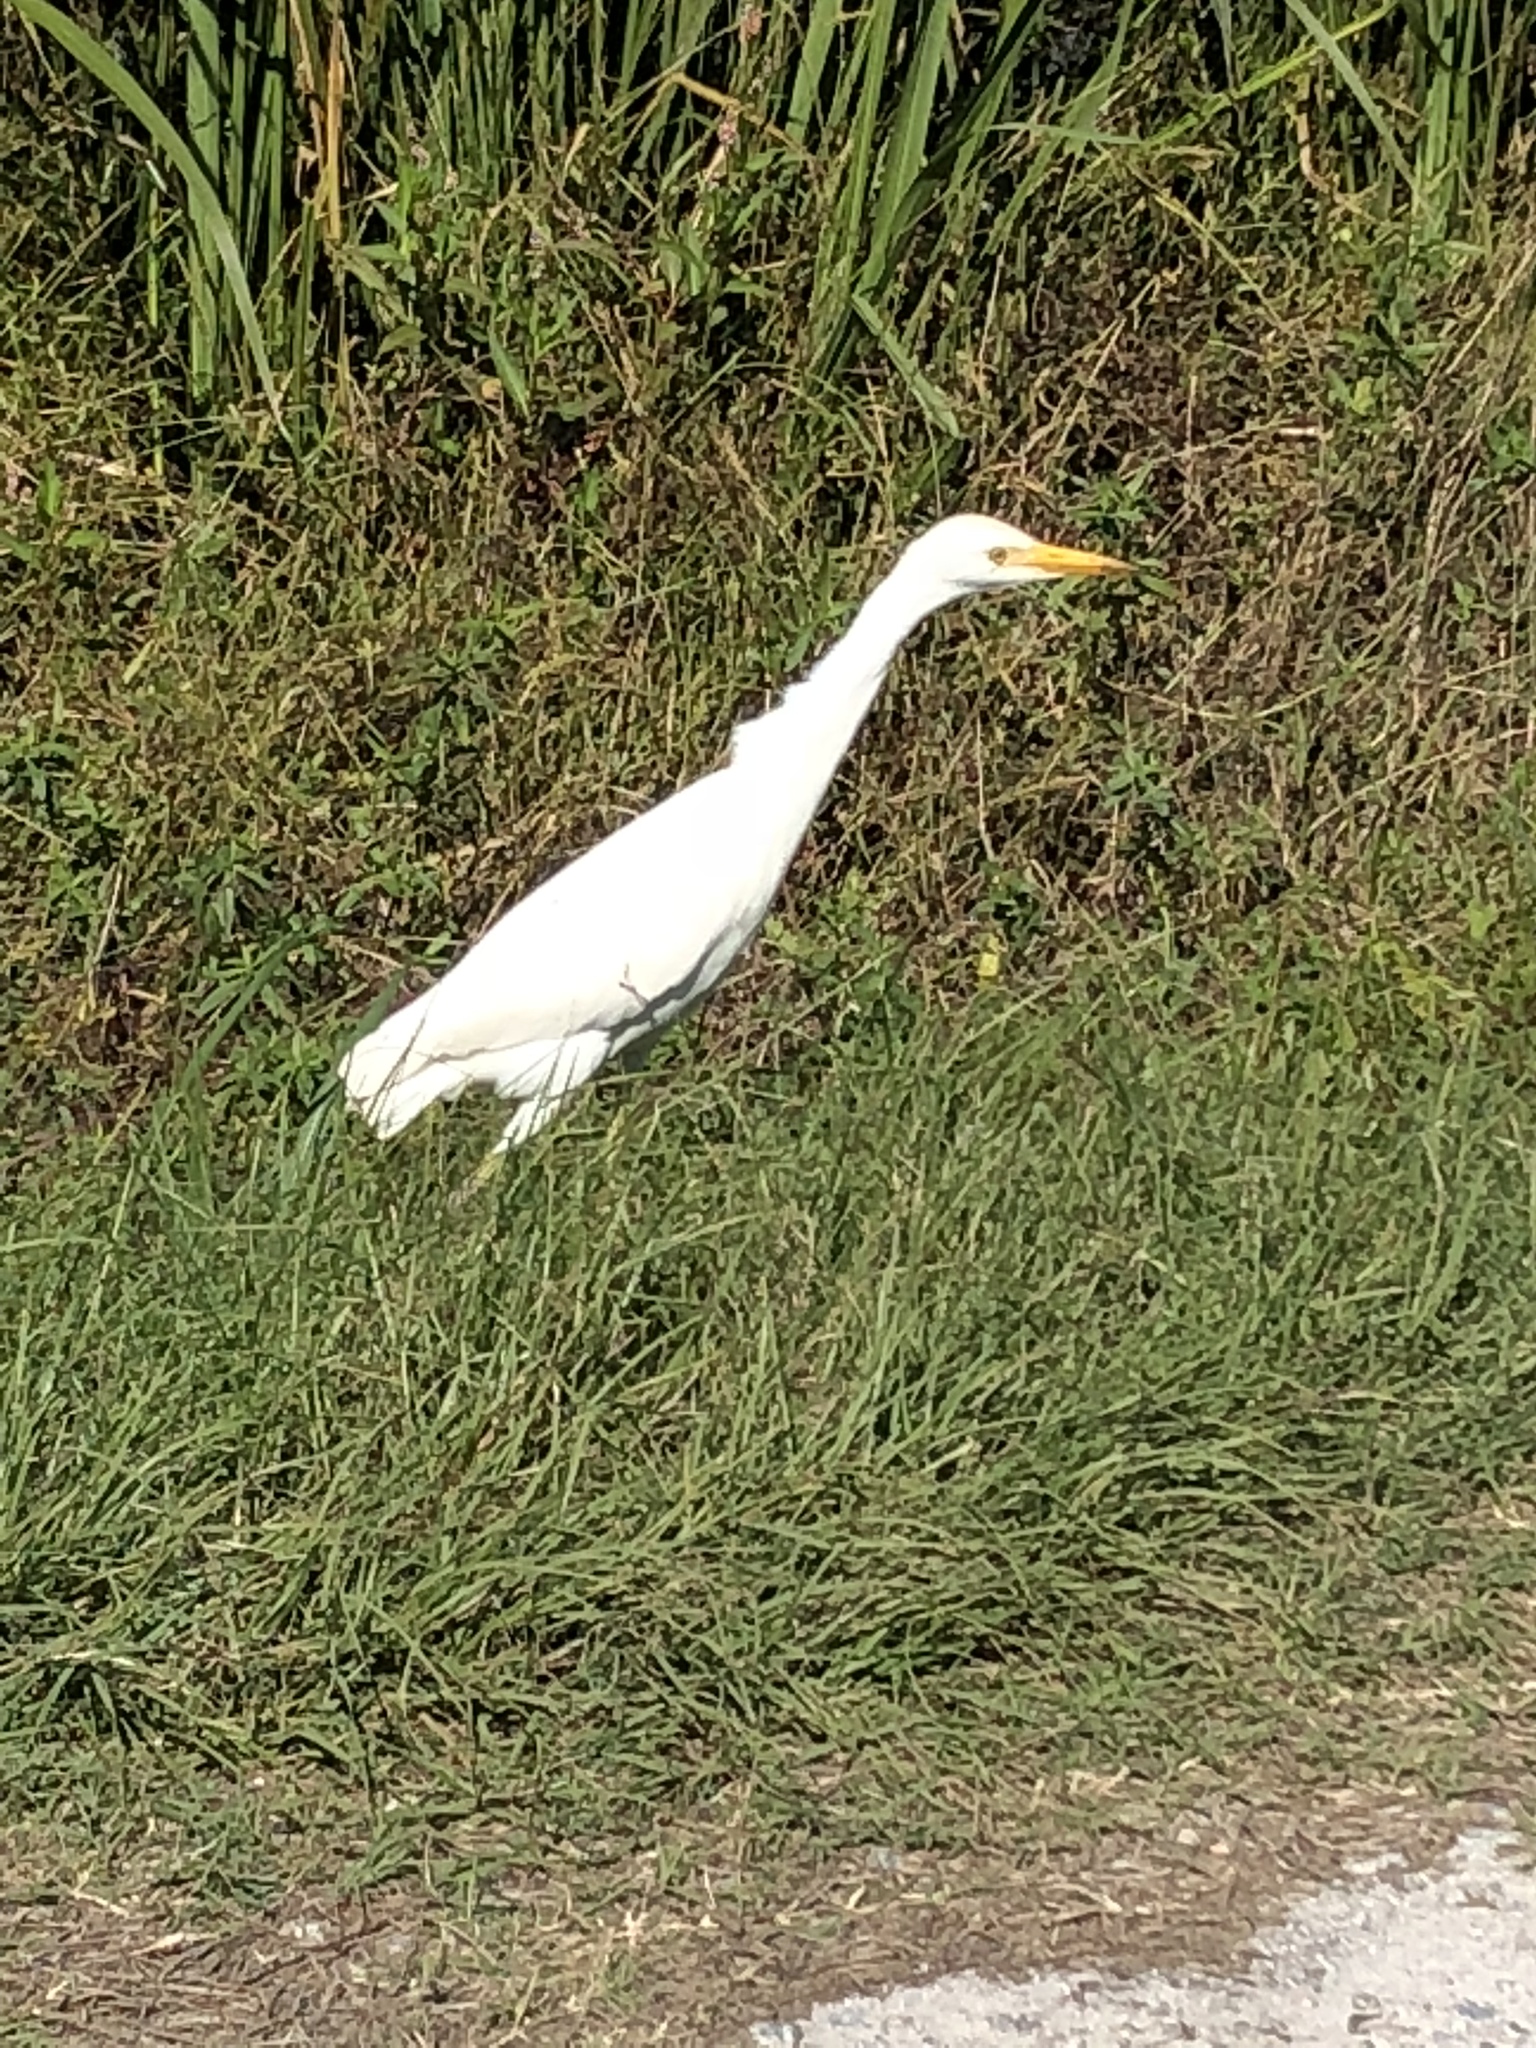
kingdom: Animalia
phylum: Chordata
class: Aves
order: Pelecaniformes
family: Ardeidae
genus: Bubulcus
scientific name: Bubulcus ibis
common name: Cattle egret
